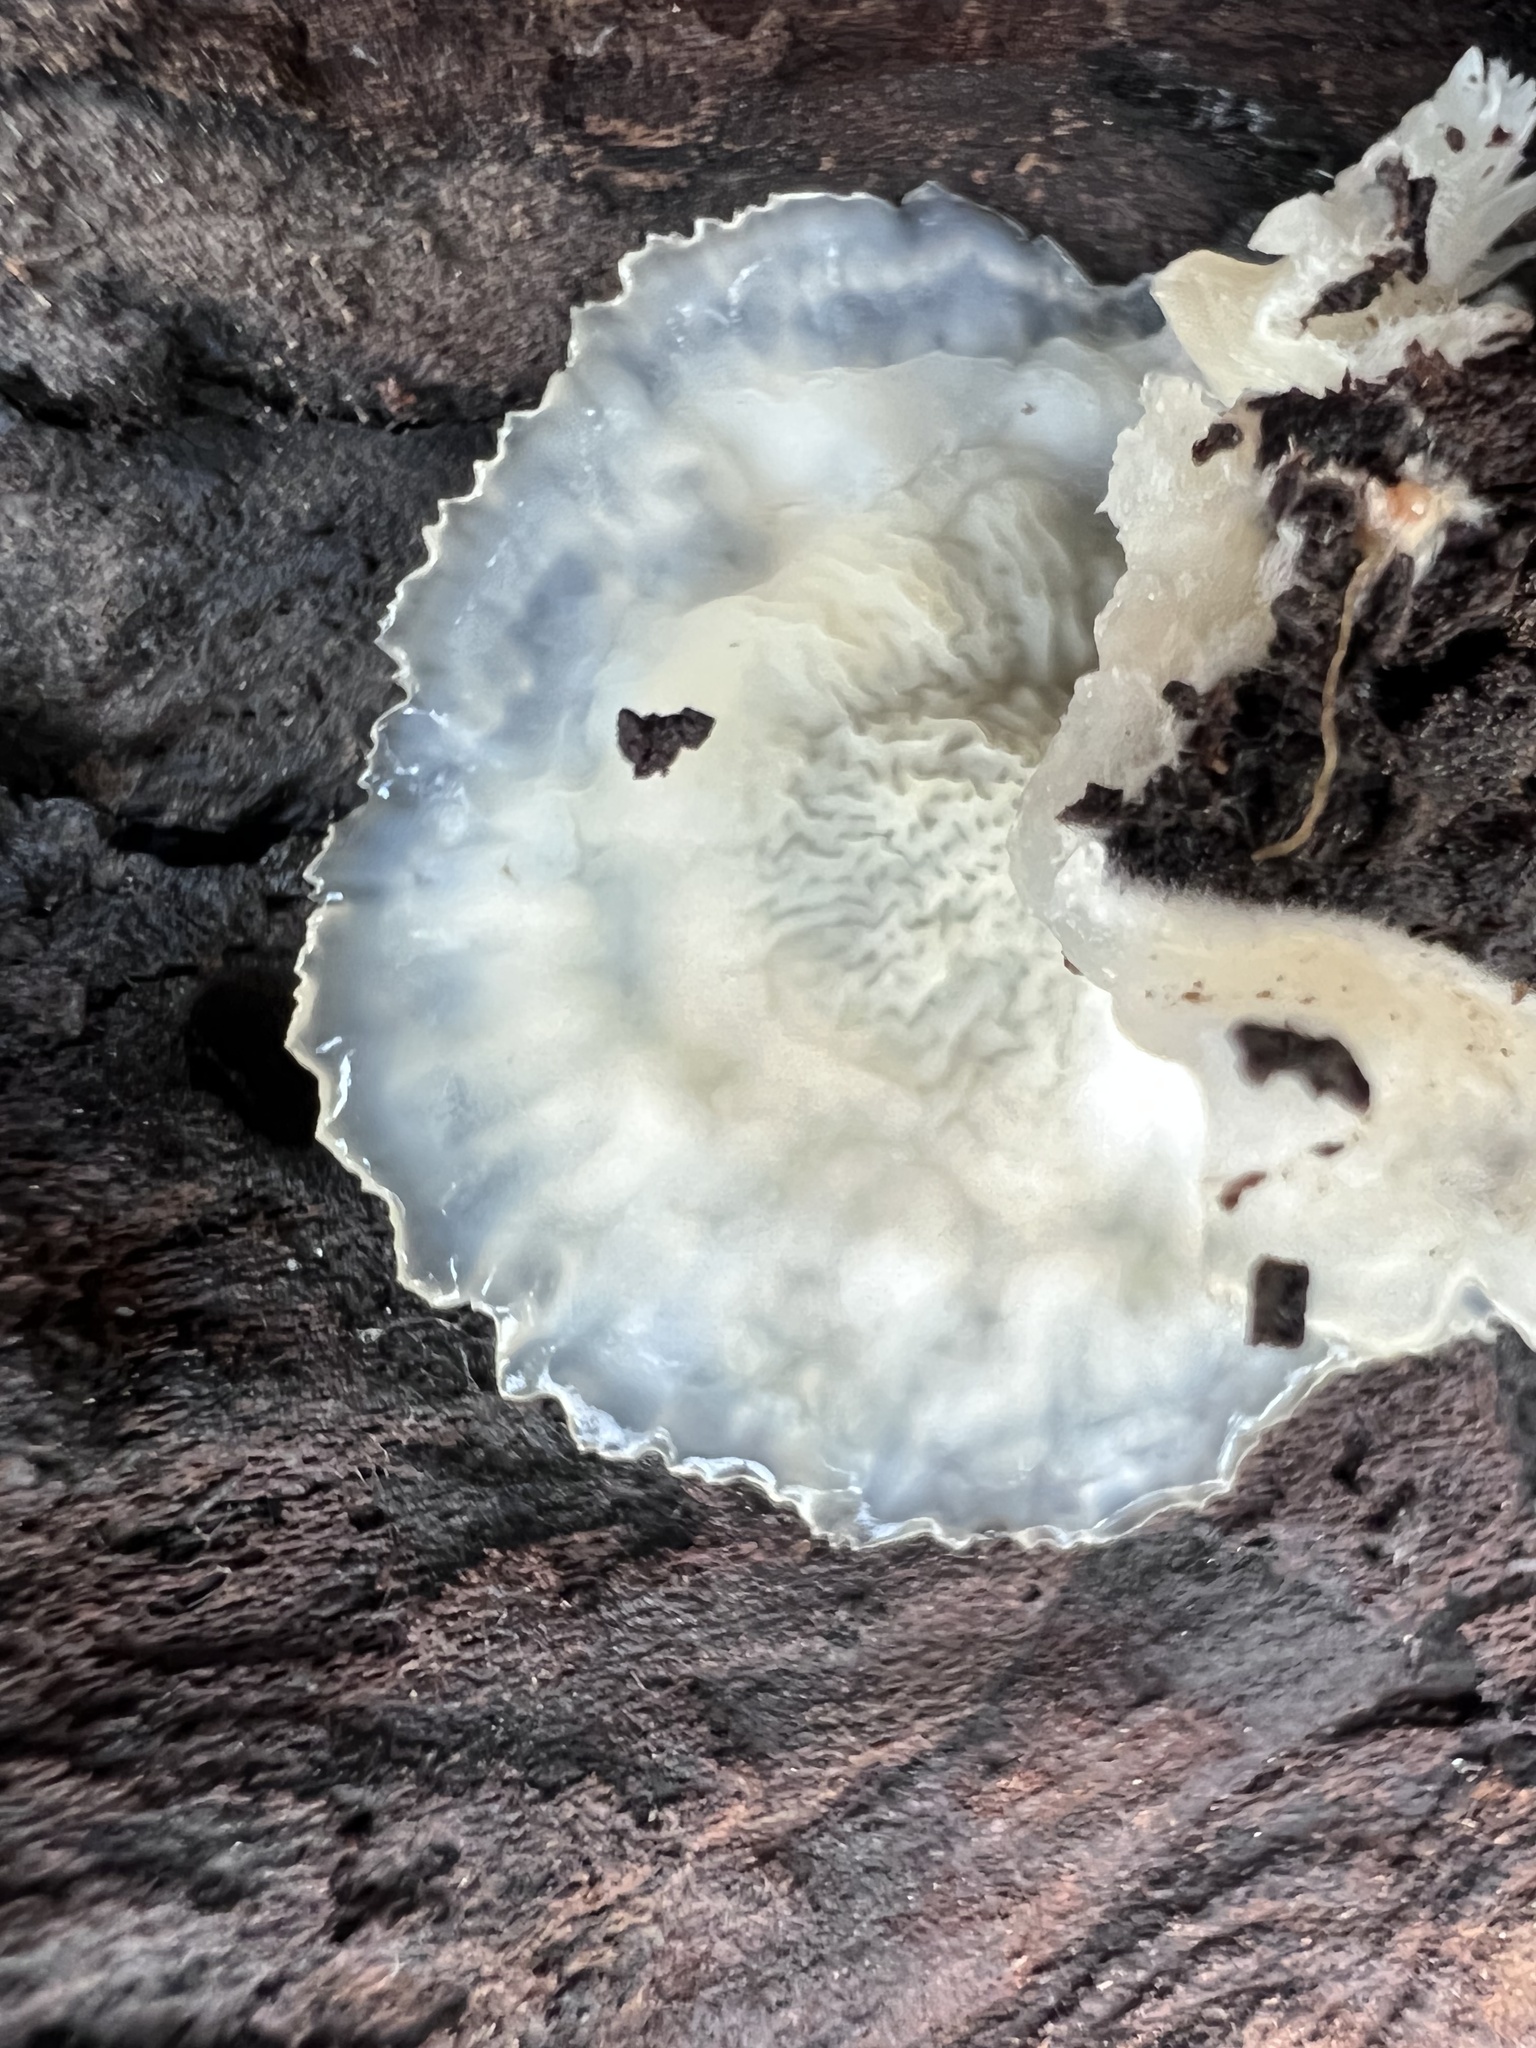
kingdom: Fungi
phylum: Basidiomycota
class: Agaricomycetes
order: Polyporales
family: Meruliaceae
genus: Phlebia
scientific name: Phlebia tremellosa
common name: Jelly rot
